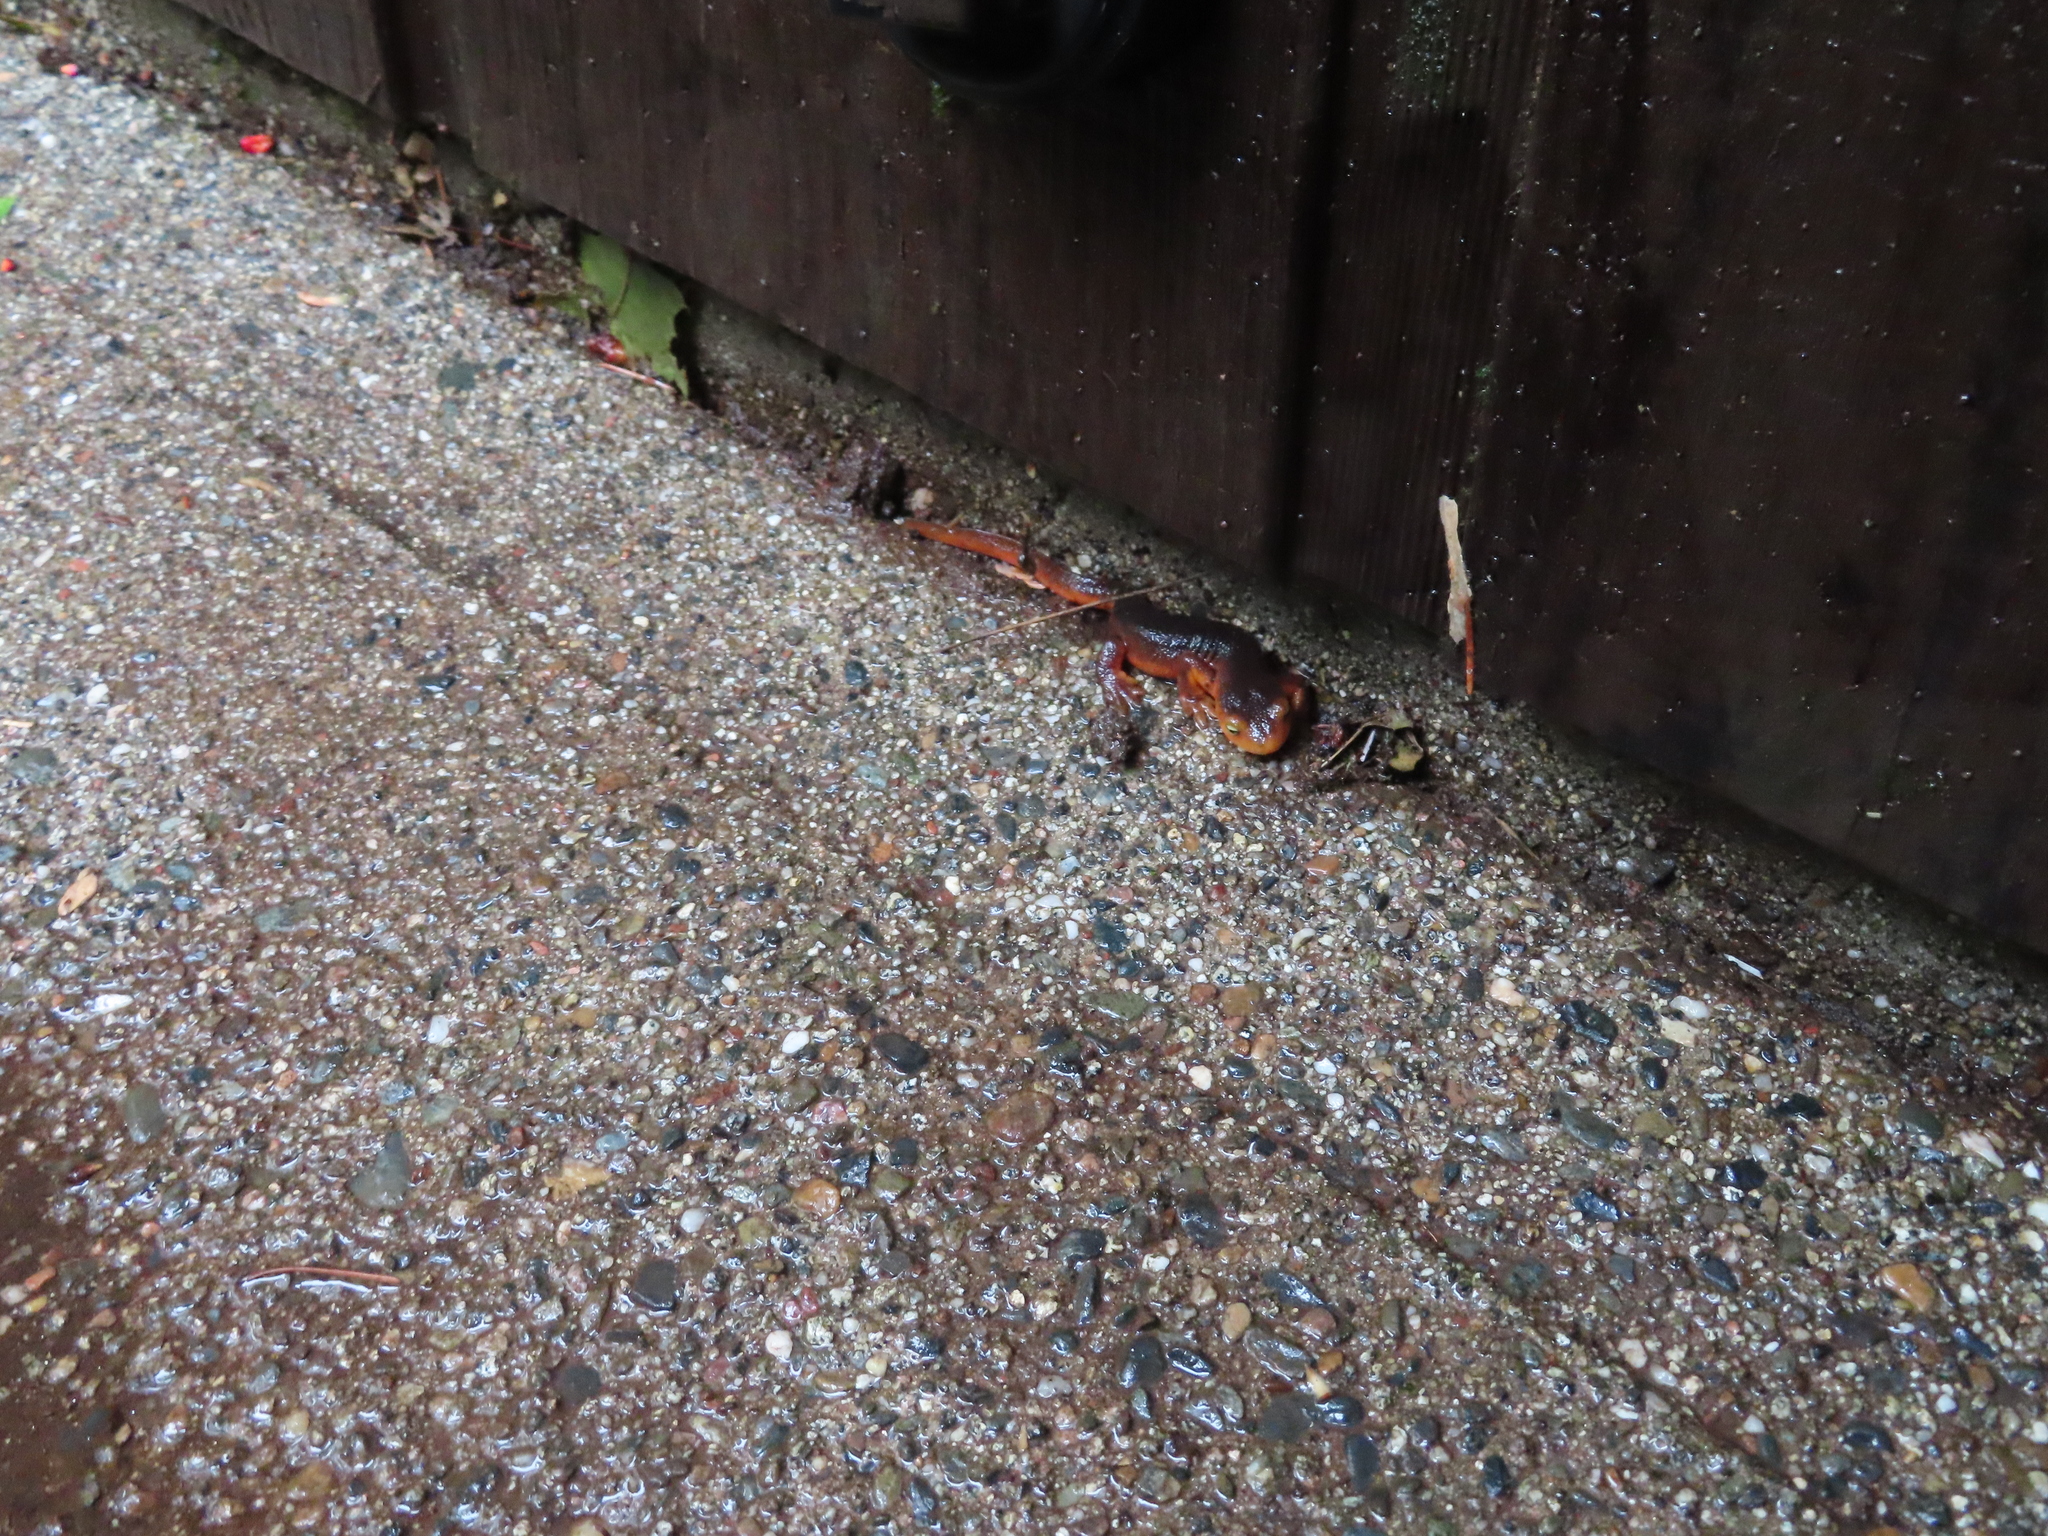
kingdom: Animalia
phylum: Chordata
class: Amphibia
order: Caudata
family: Salamandridae
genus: Taricha
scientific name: Taricha sierrae
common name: Sierra newt
